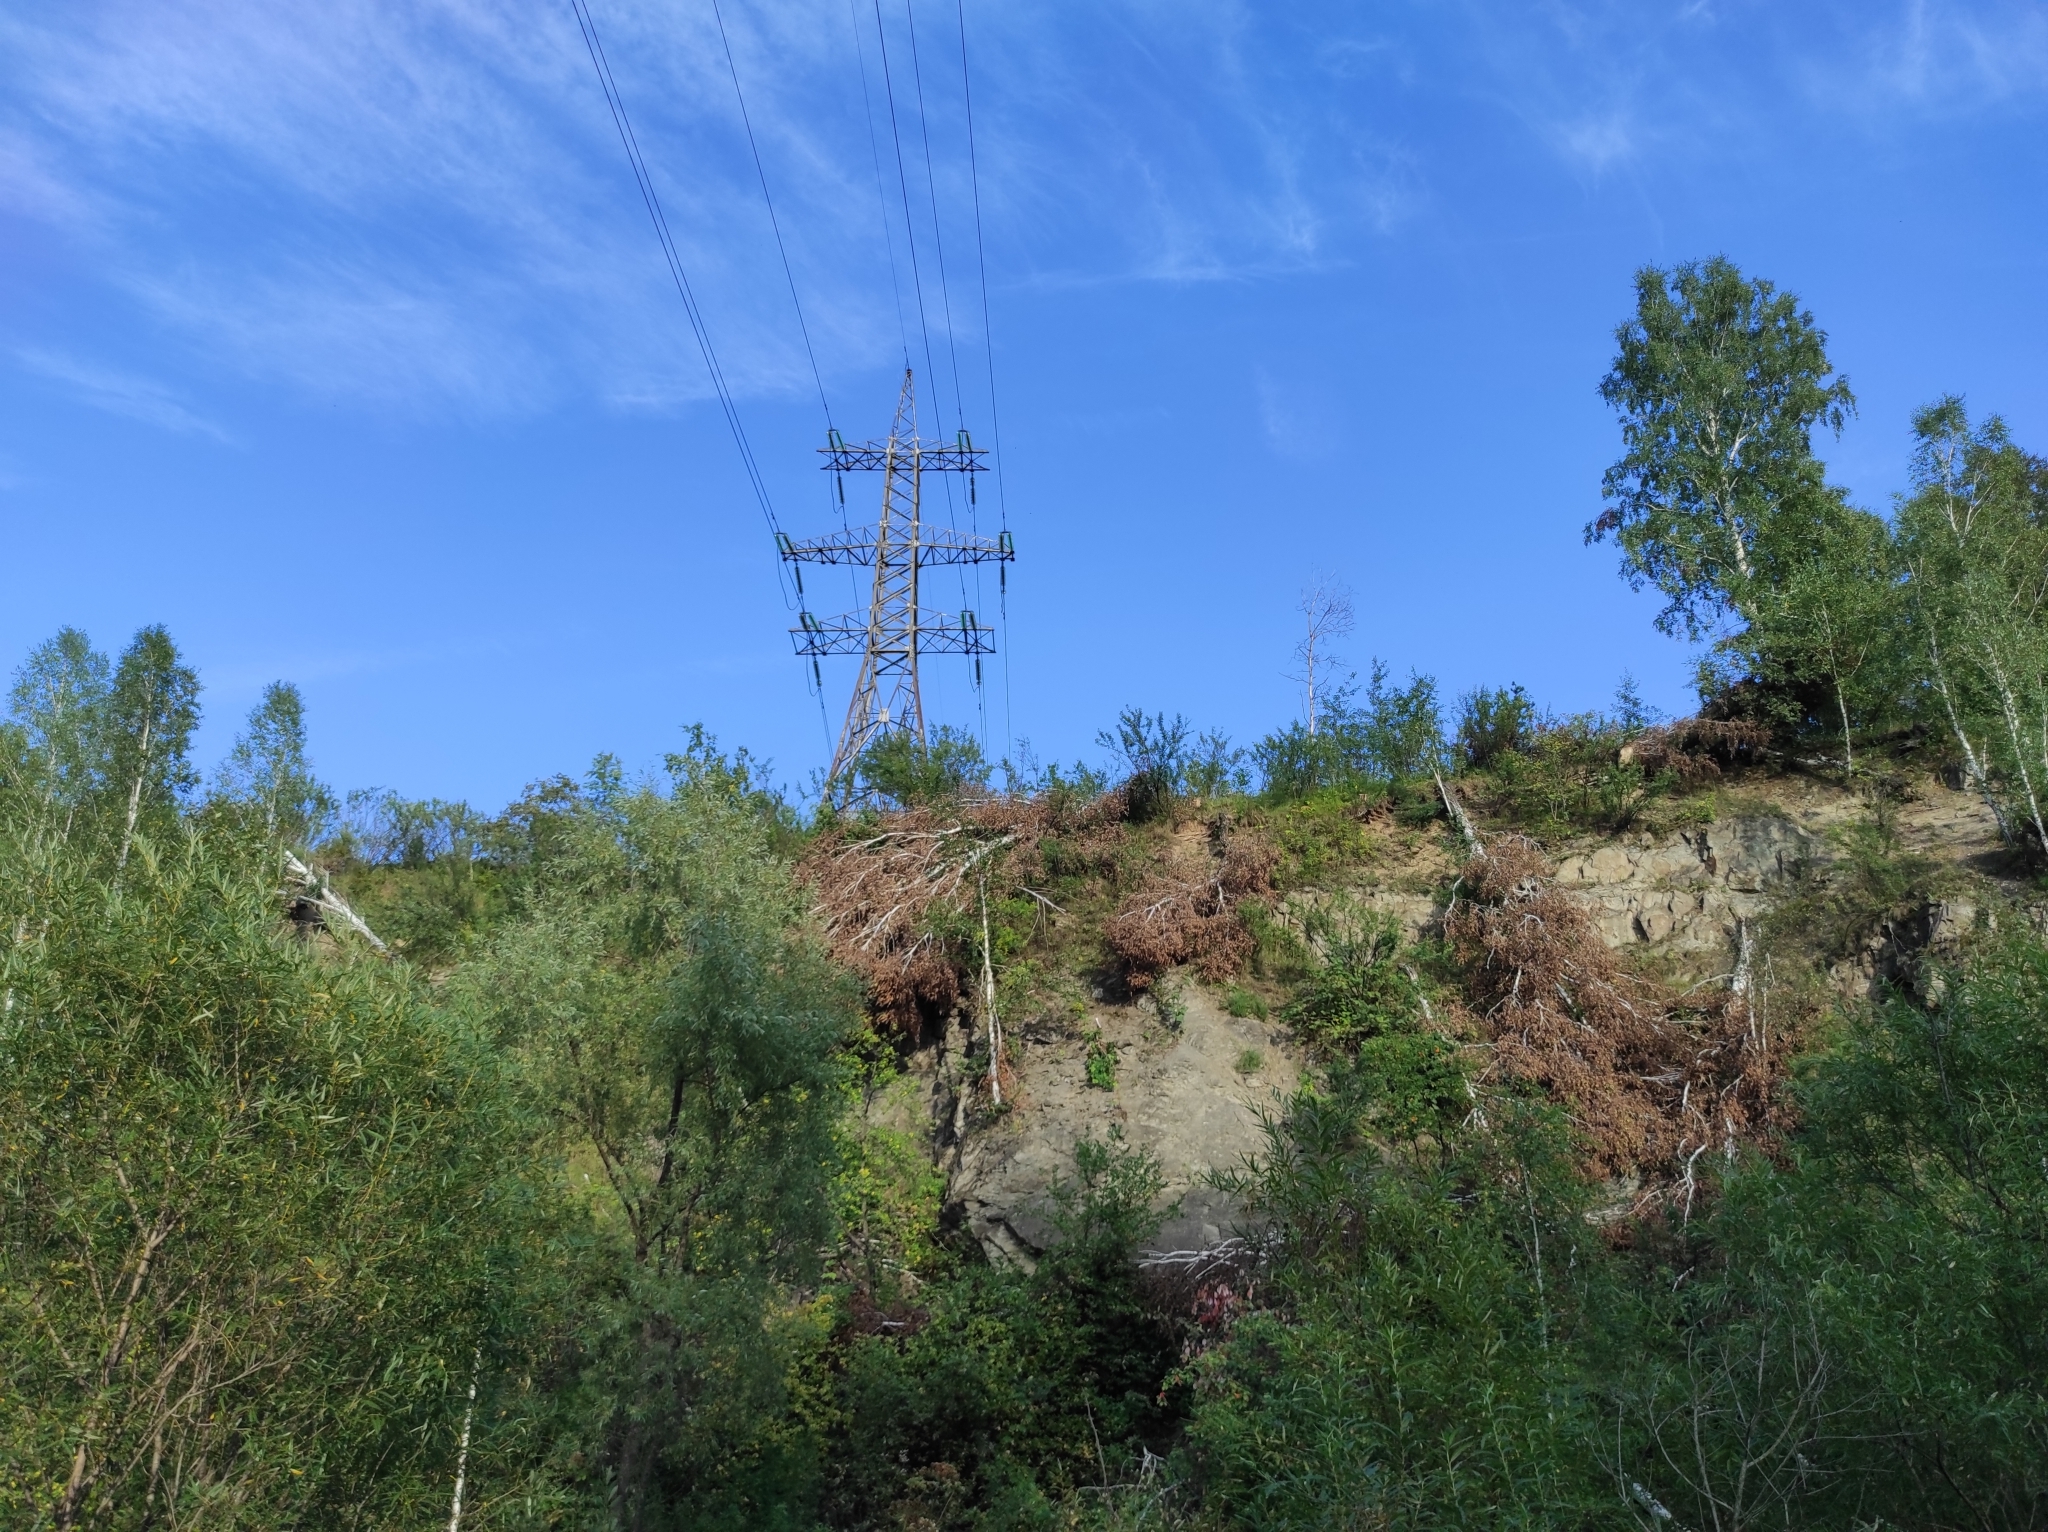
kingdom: Plantae
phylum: Tracheophyta
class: Magnoliopsida
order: Fagales
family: Betulaceae
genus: Betula
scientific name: Betula pendula
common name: Silver birch
